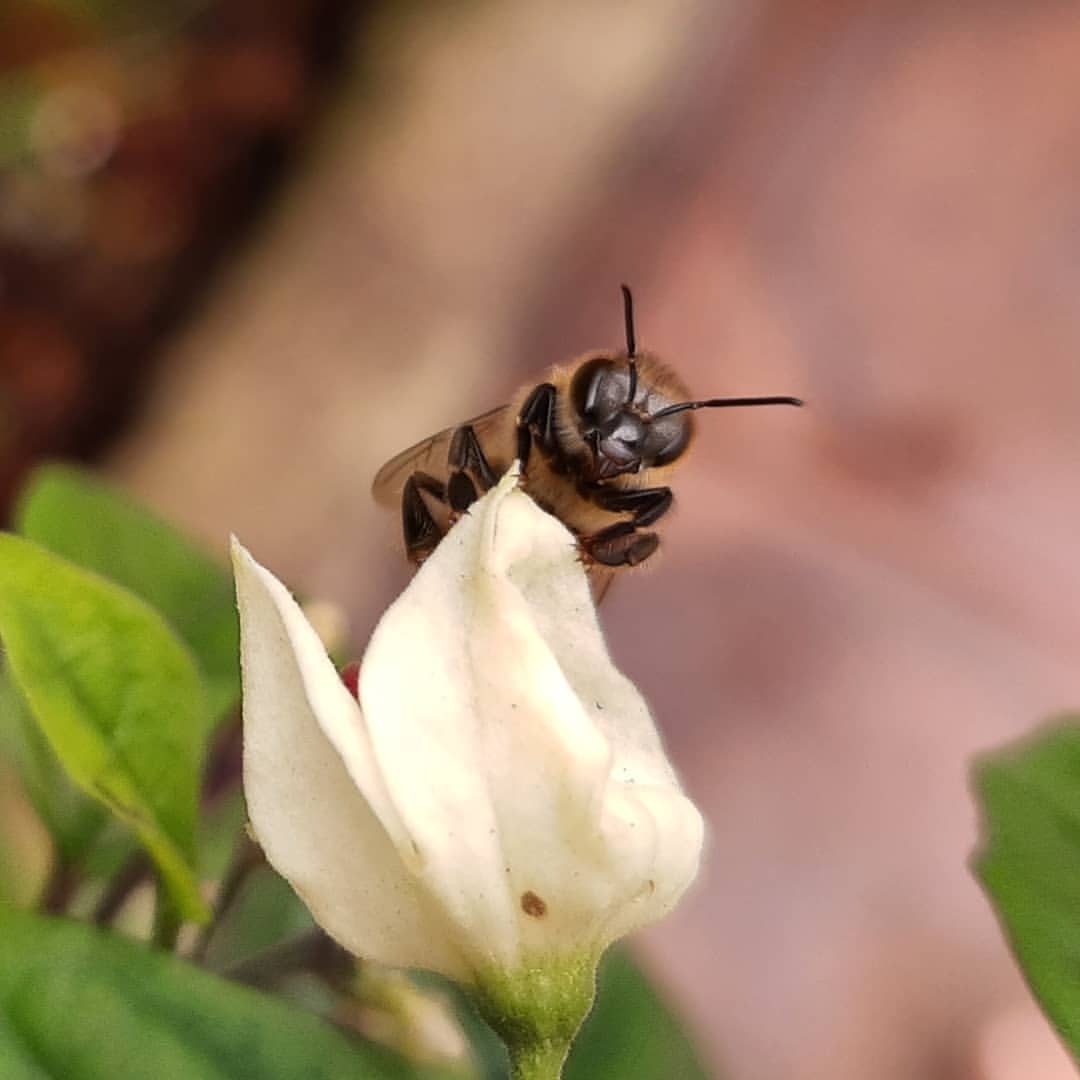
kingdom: Animalia
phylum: Arthropoda
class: Insecta
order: Hymenoptera
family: Apidae
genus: Apis
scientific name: Apis mellifera
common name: Honey bee
